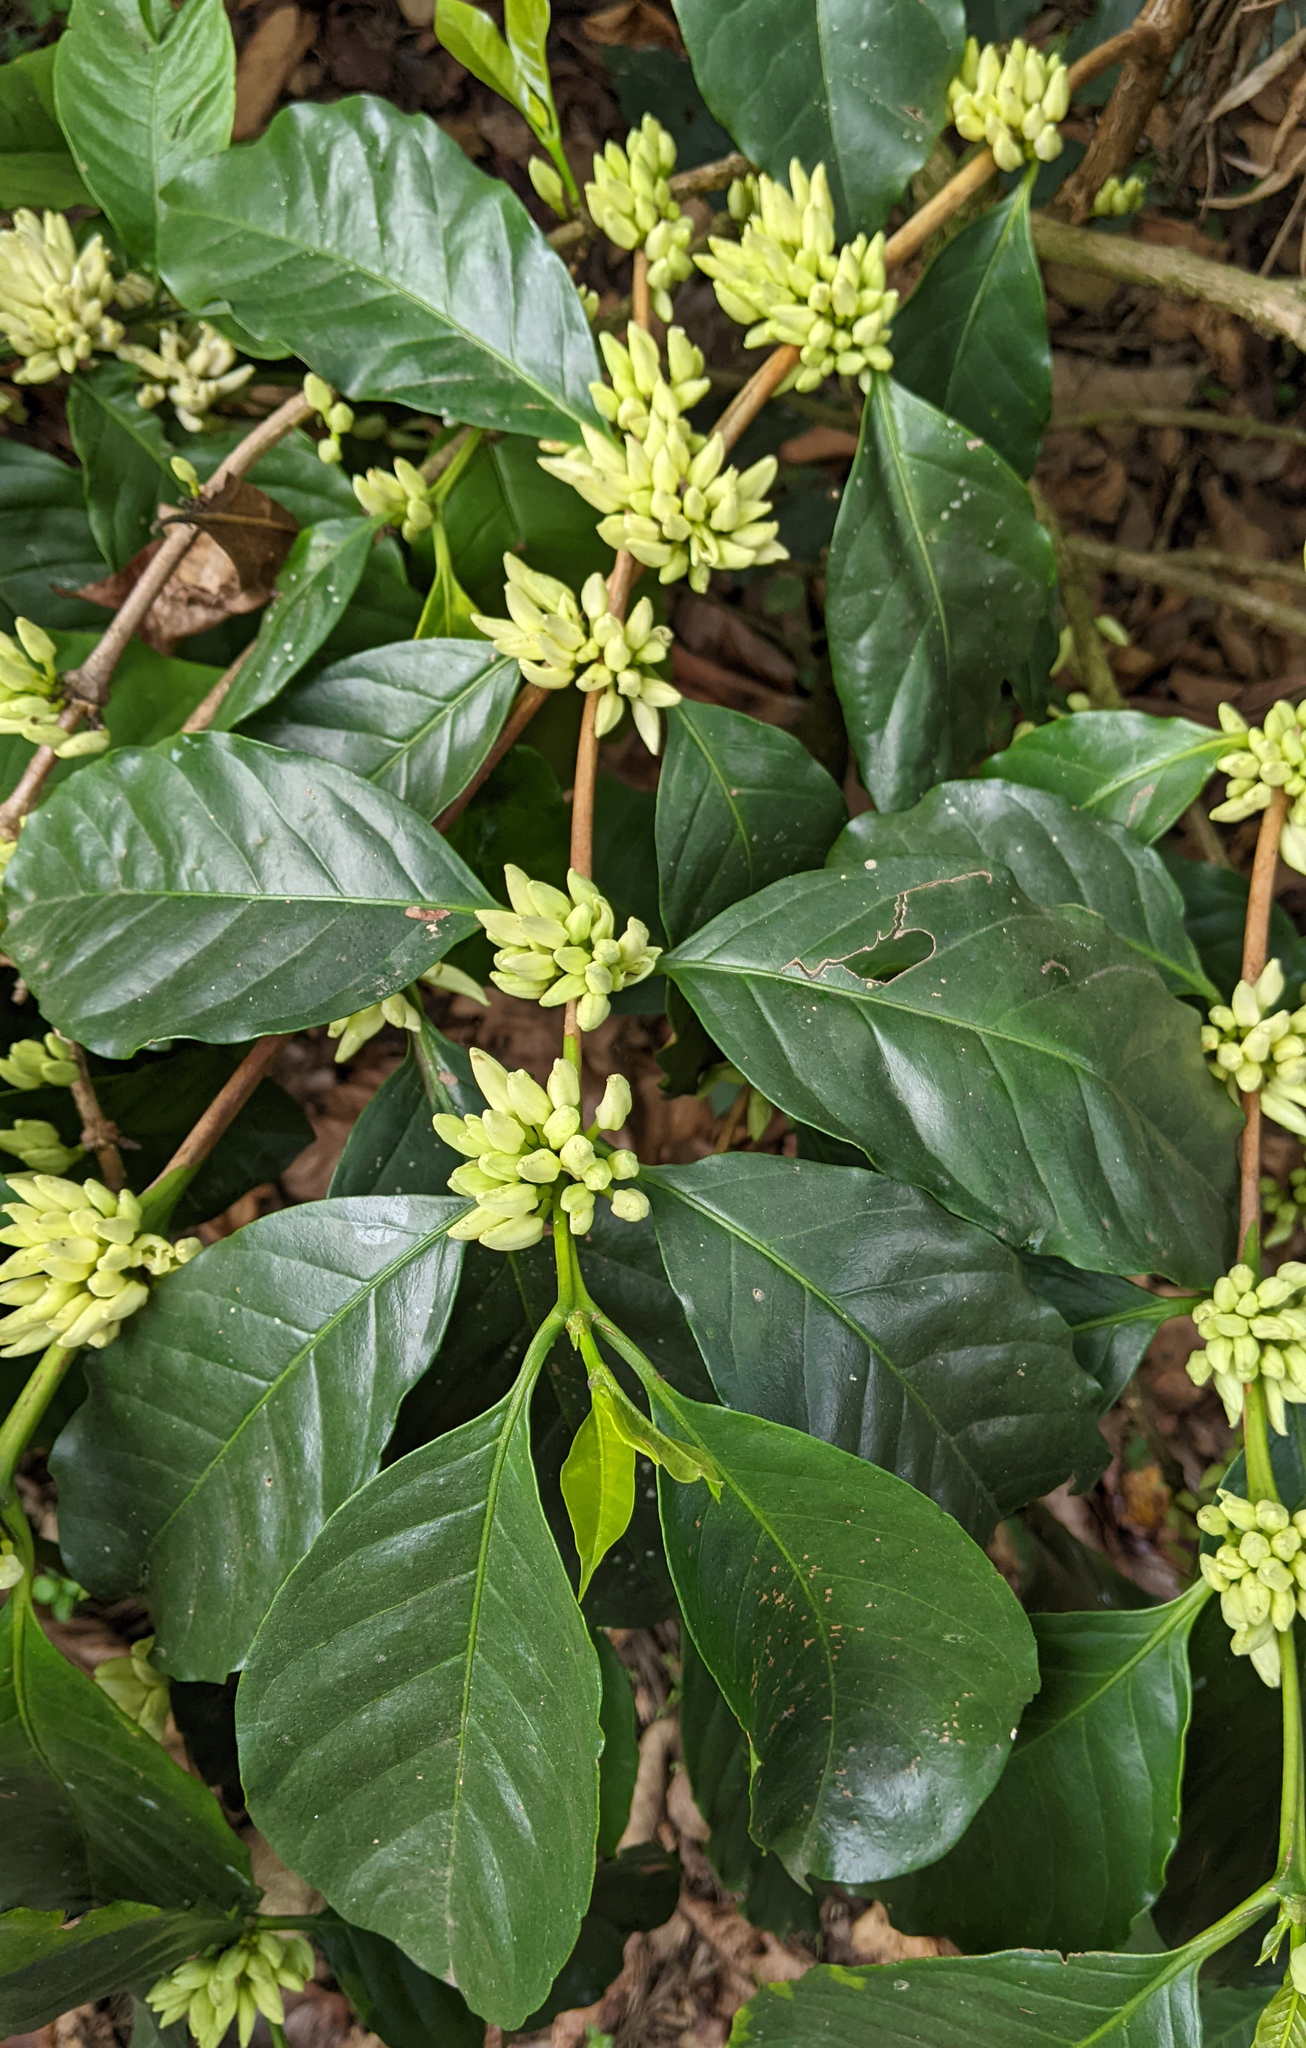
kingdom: Plantae
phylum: Tracheophyta
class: Magnoliopsida
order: Gentianales
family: Rubiaceae
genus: Coffea
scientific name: Coffea arabica
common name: Coffee
